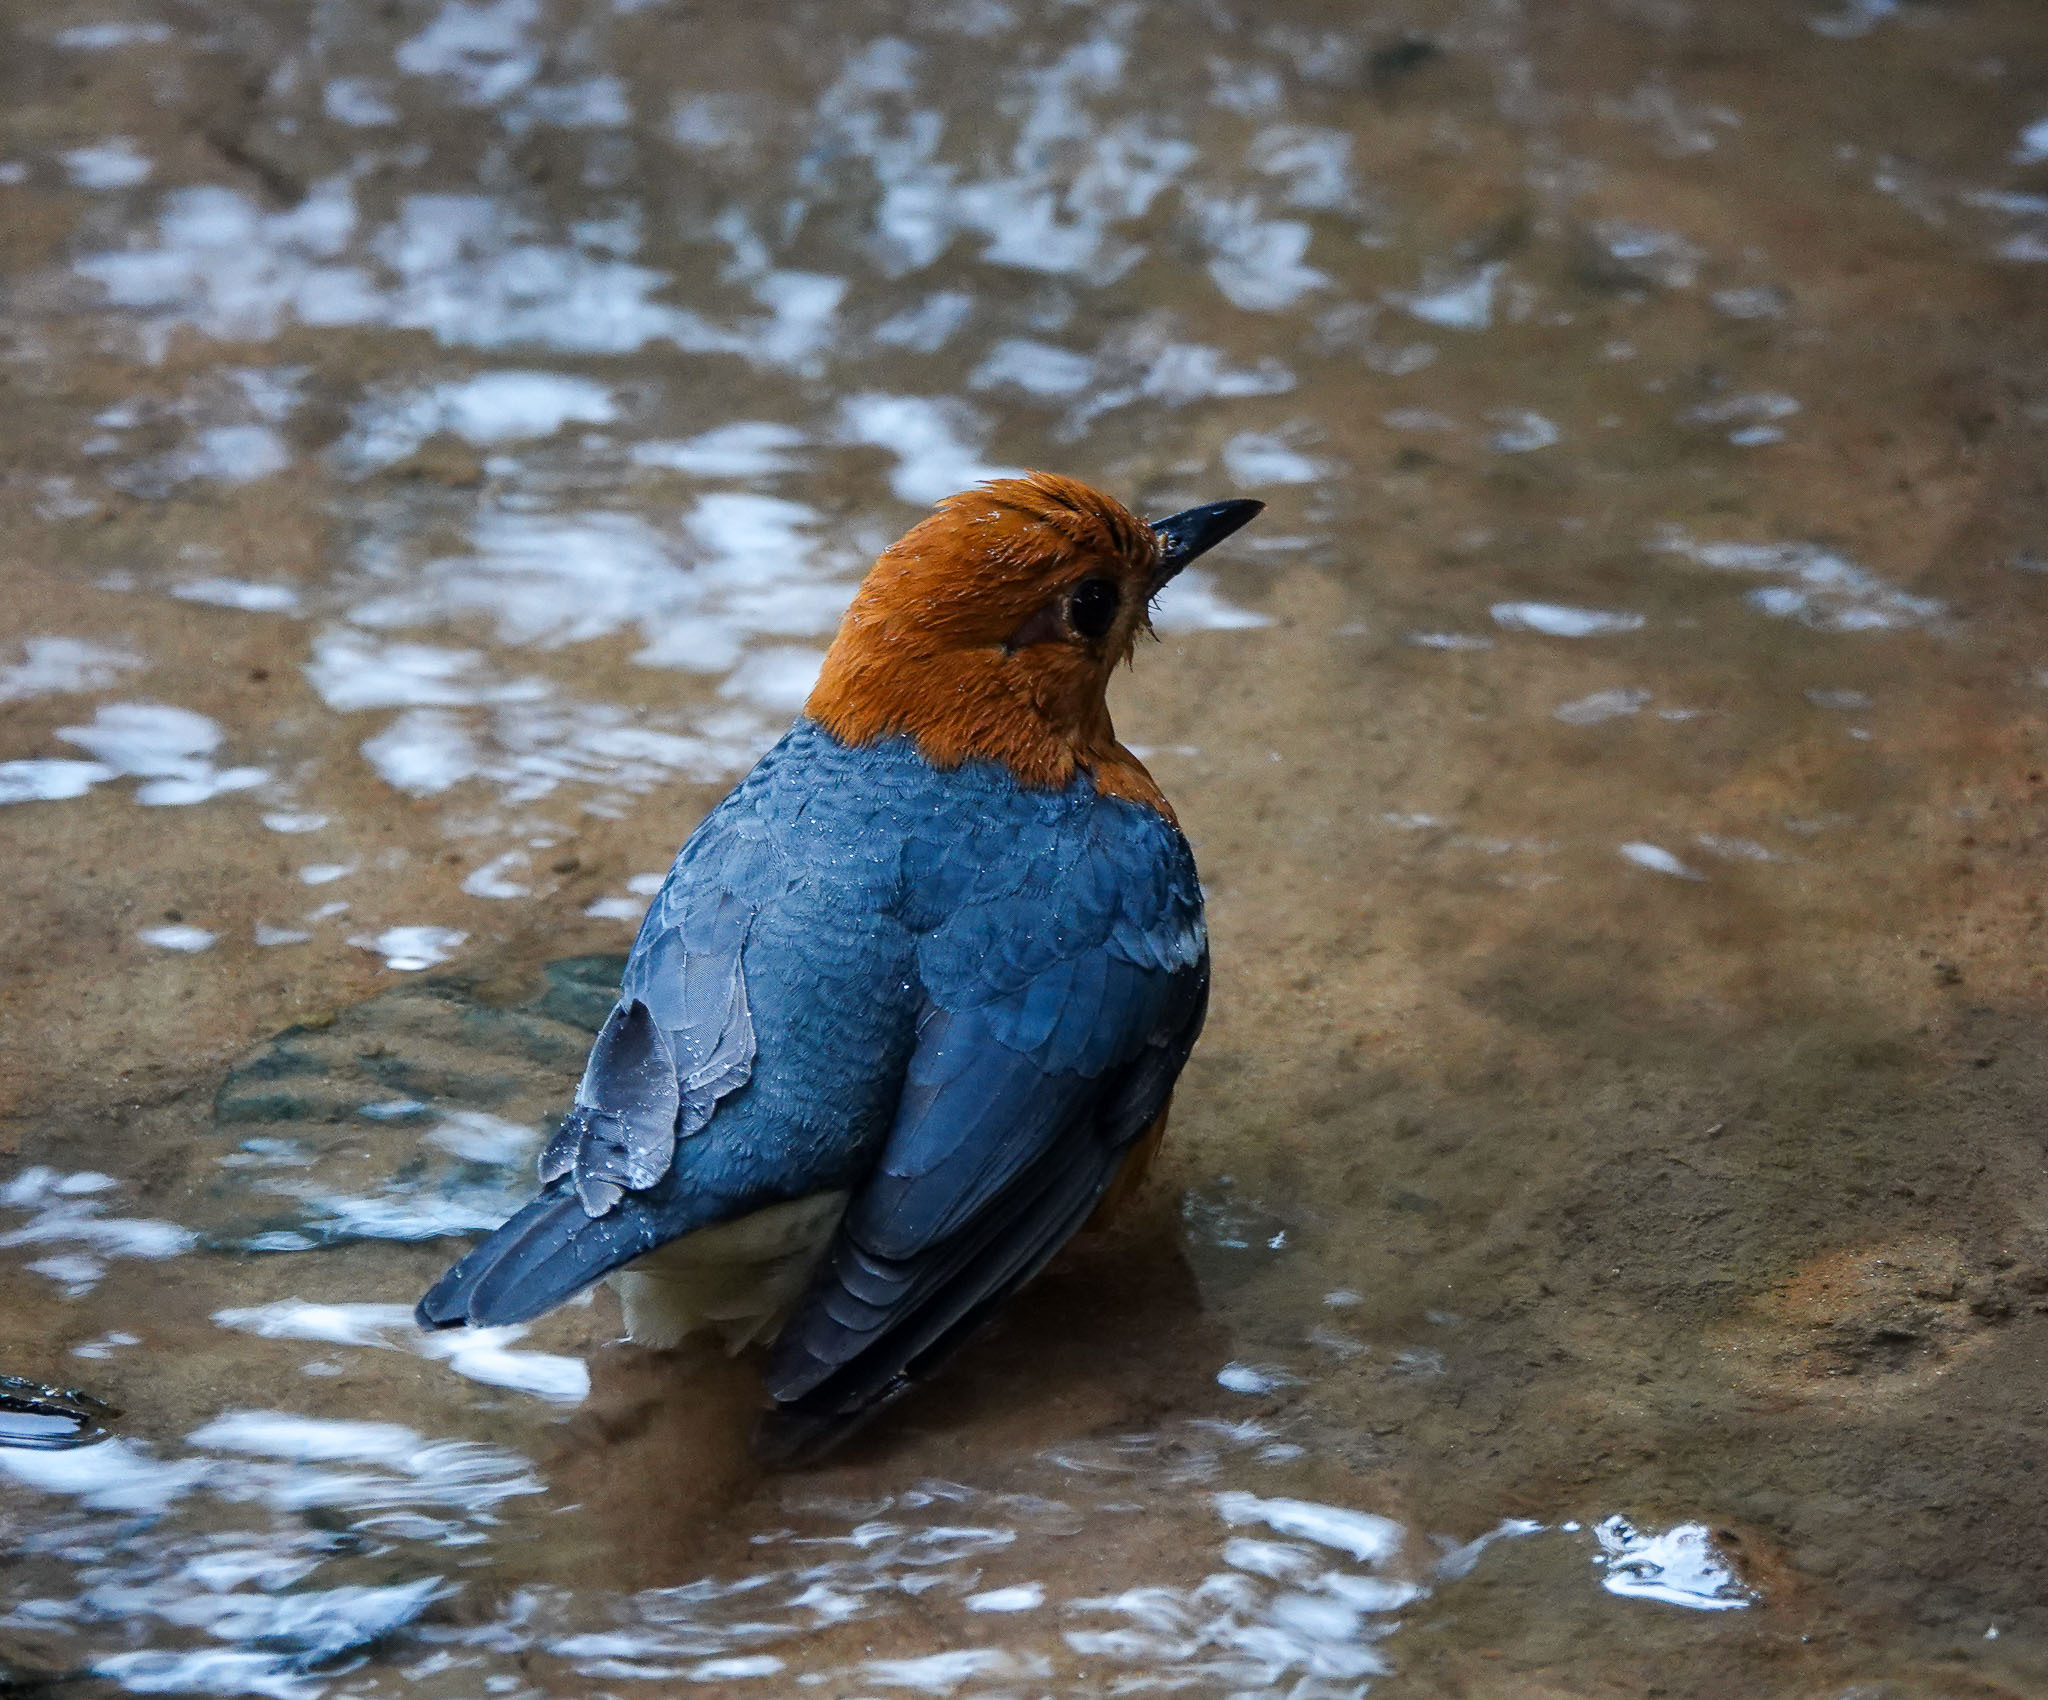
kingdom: Animalia
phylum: Chordata
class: Aves
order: Passeriformes
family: Turdidae
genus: Geokichla
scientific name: Geokichla citrina
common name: Orange-headed thrush
